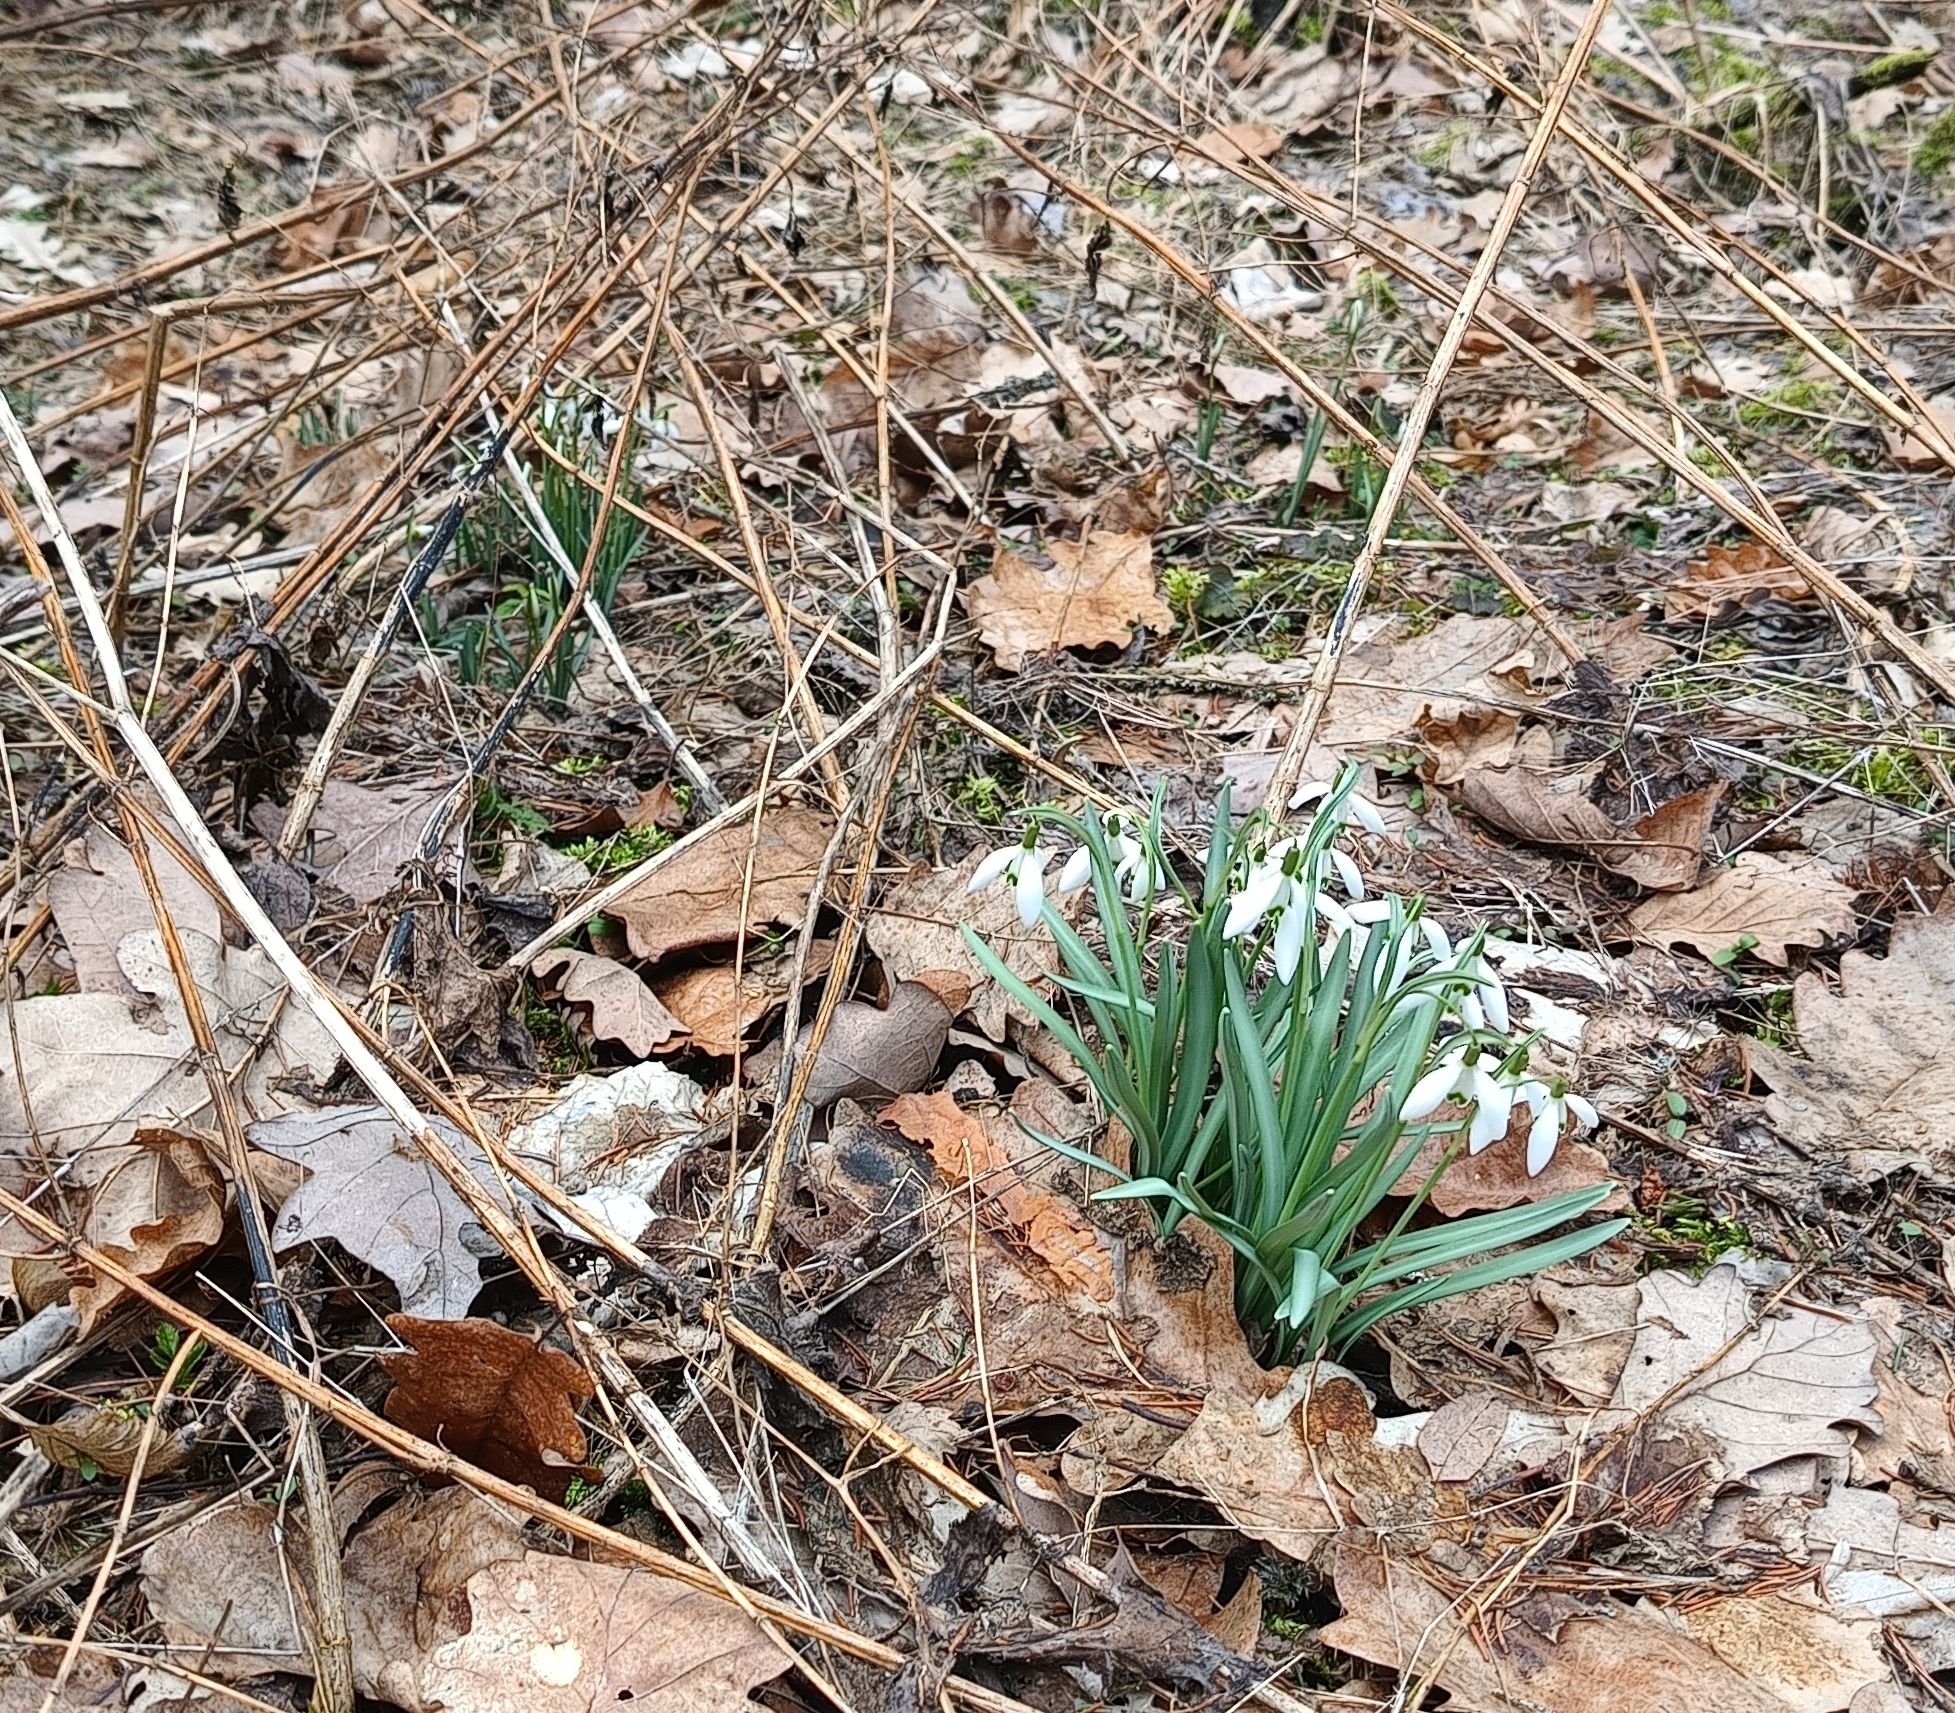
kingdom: Plantae
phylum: Tracheophyta
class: Liliopsida
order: Asparagales
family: Amaryllidaceae
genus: Galanthus
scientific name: Galanthus nivalis
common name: Snowdrop
